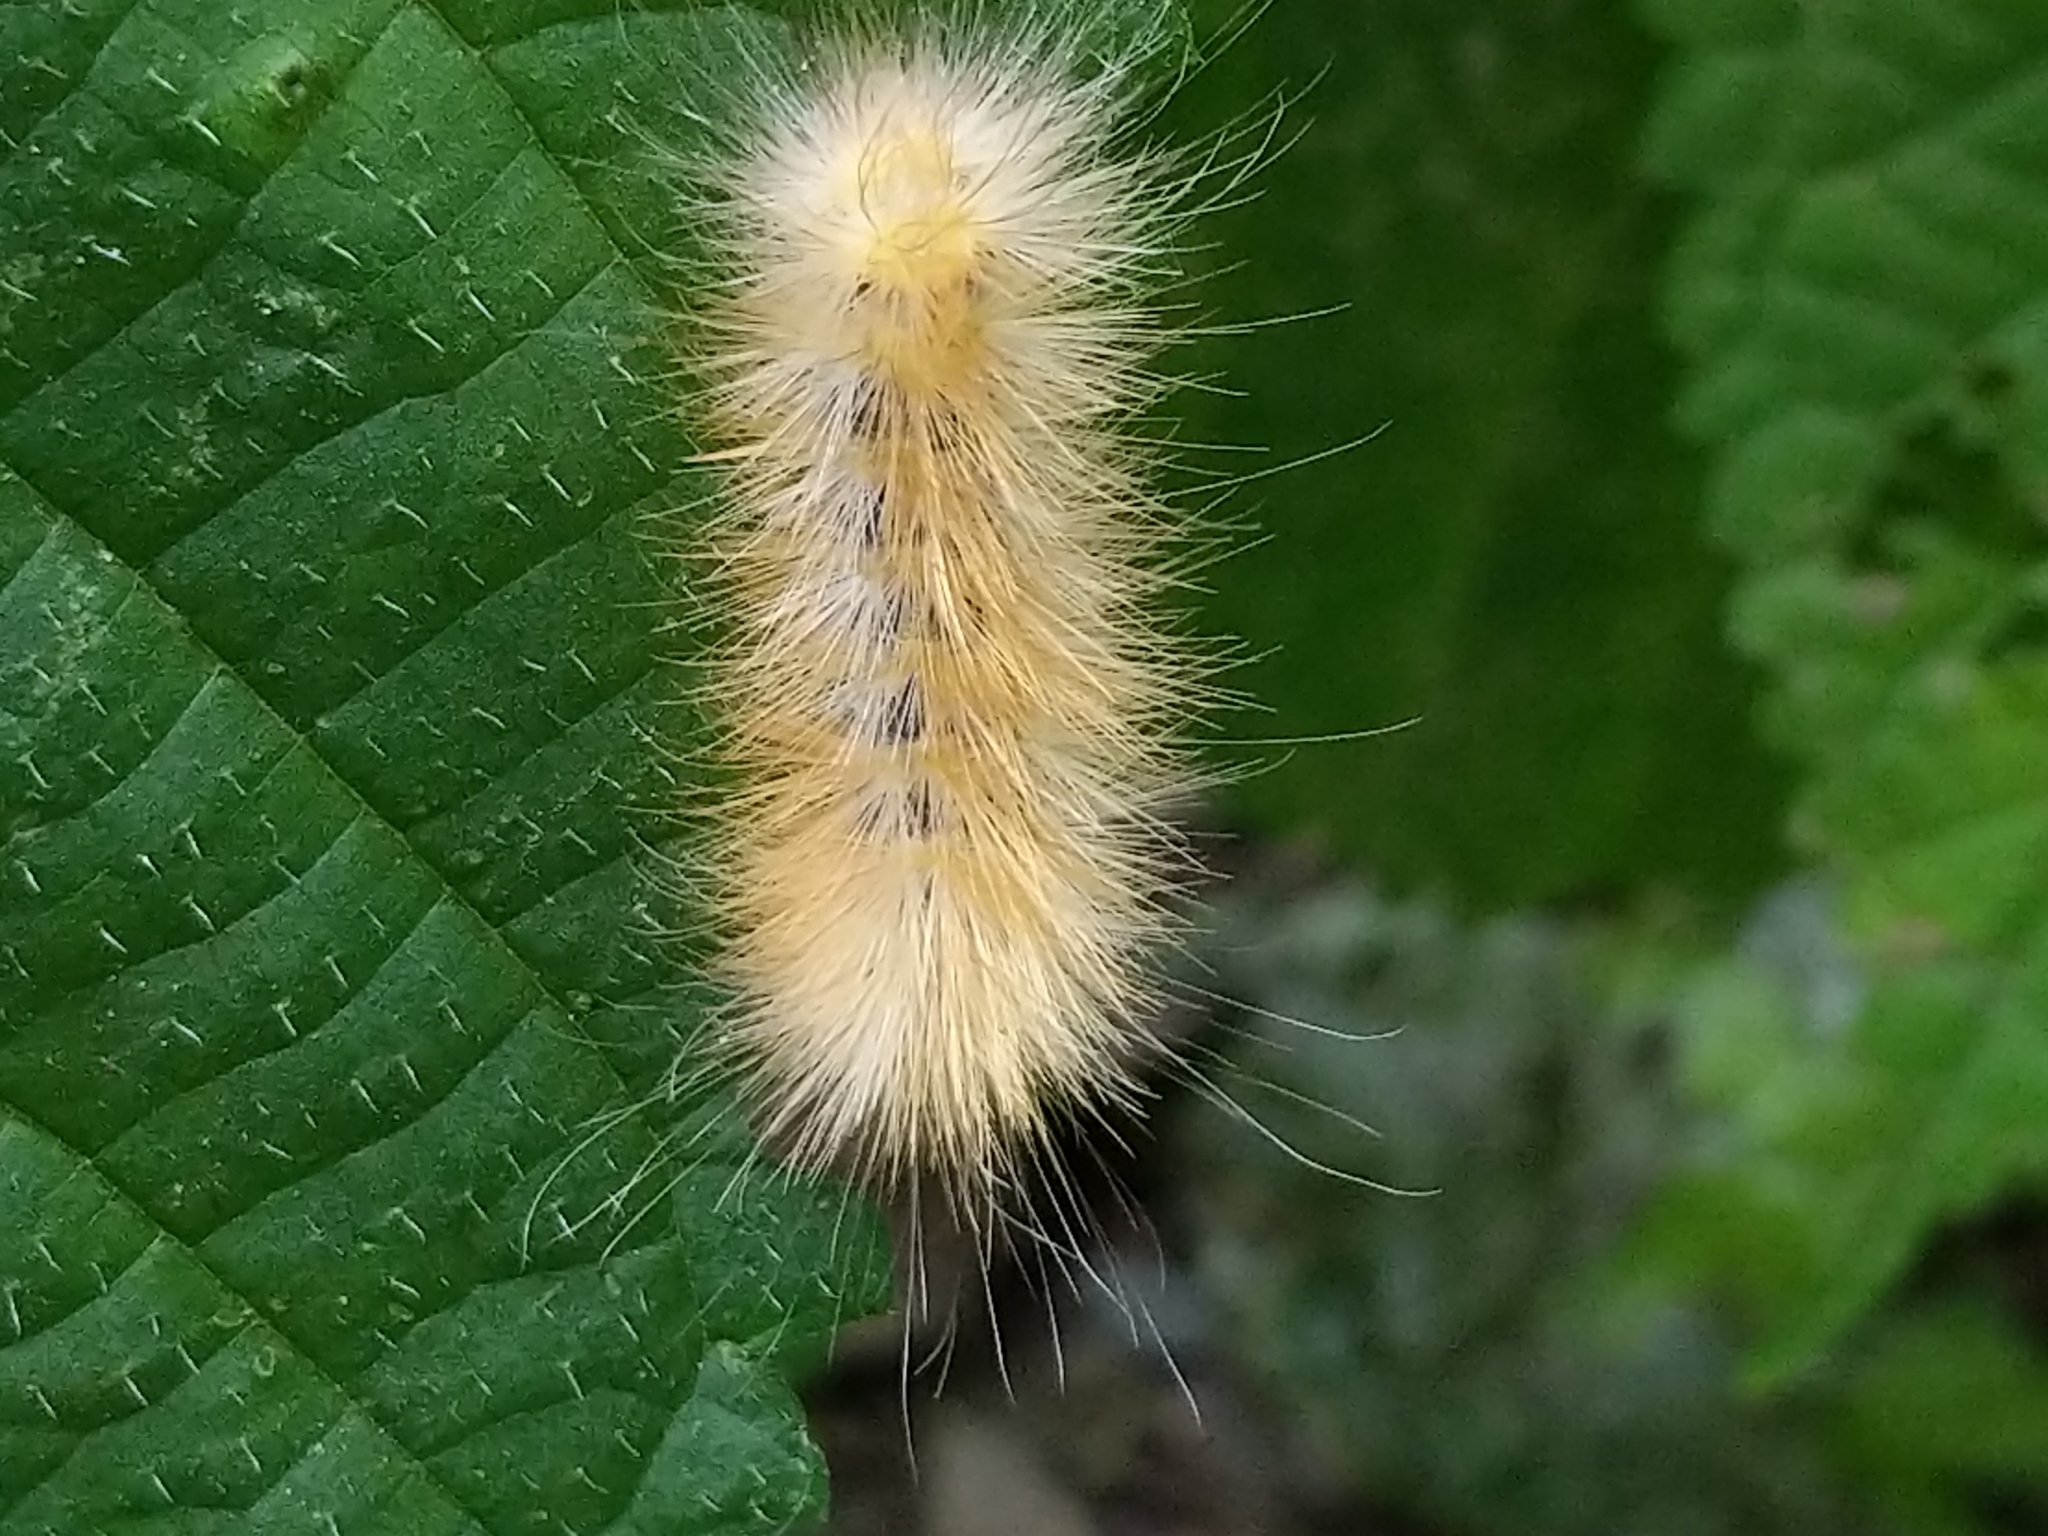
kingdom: Animalia
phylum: Arthropoda
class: Insecta
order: Lepidoptera
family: Erebidae
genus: Spilosoma
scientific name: Spilosoma virginica
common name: Virginia tiger moth
